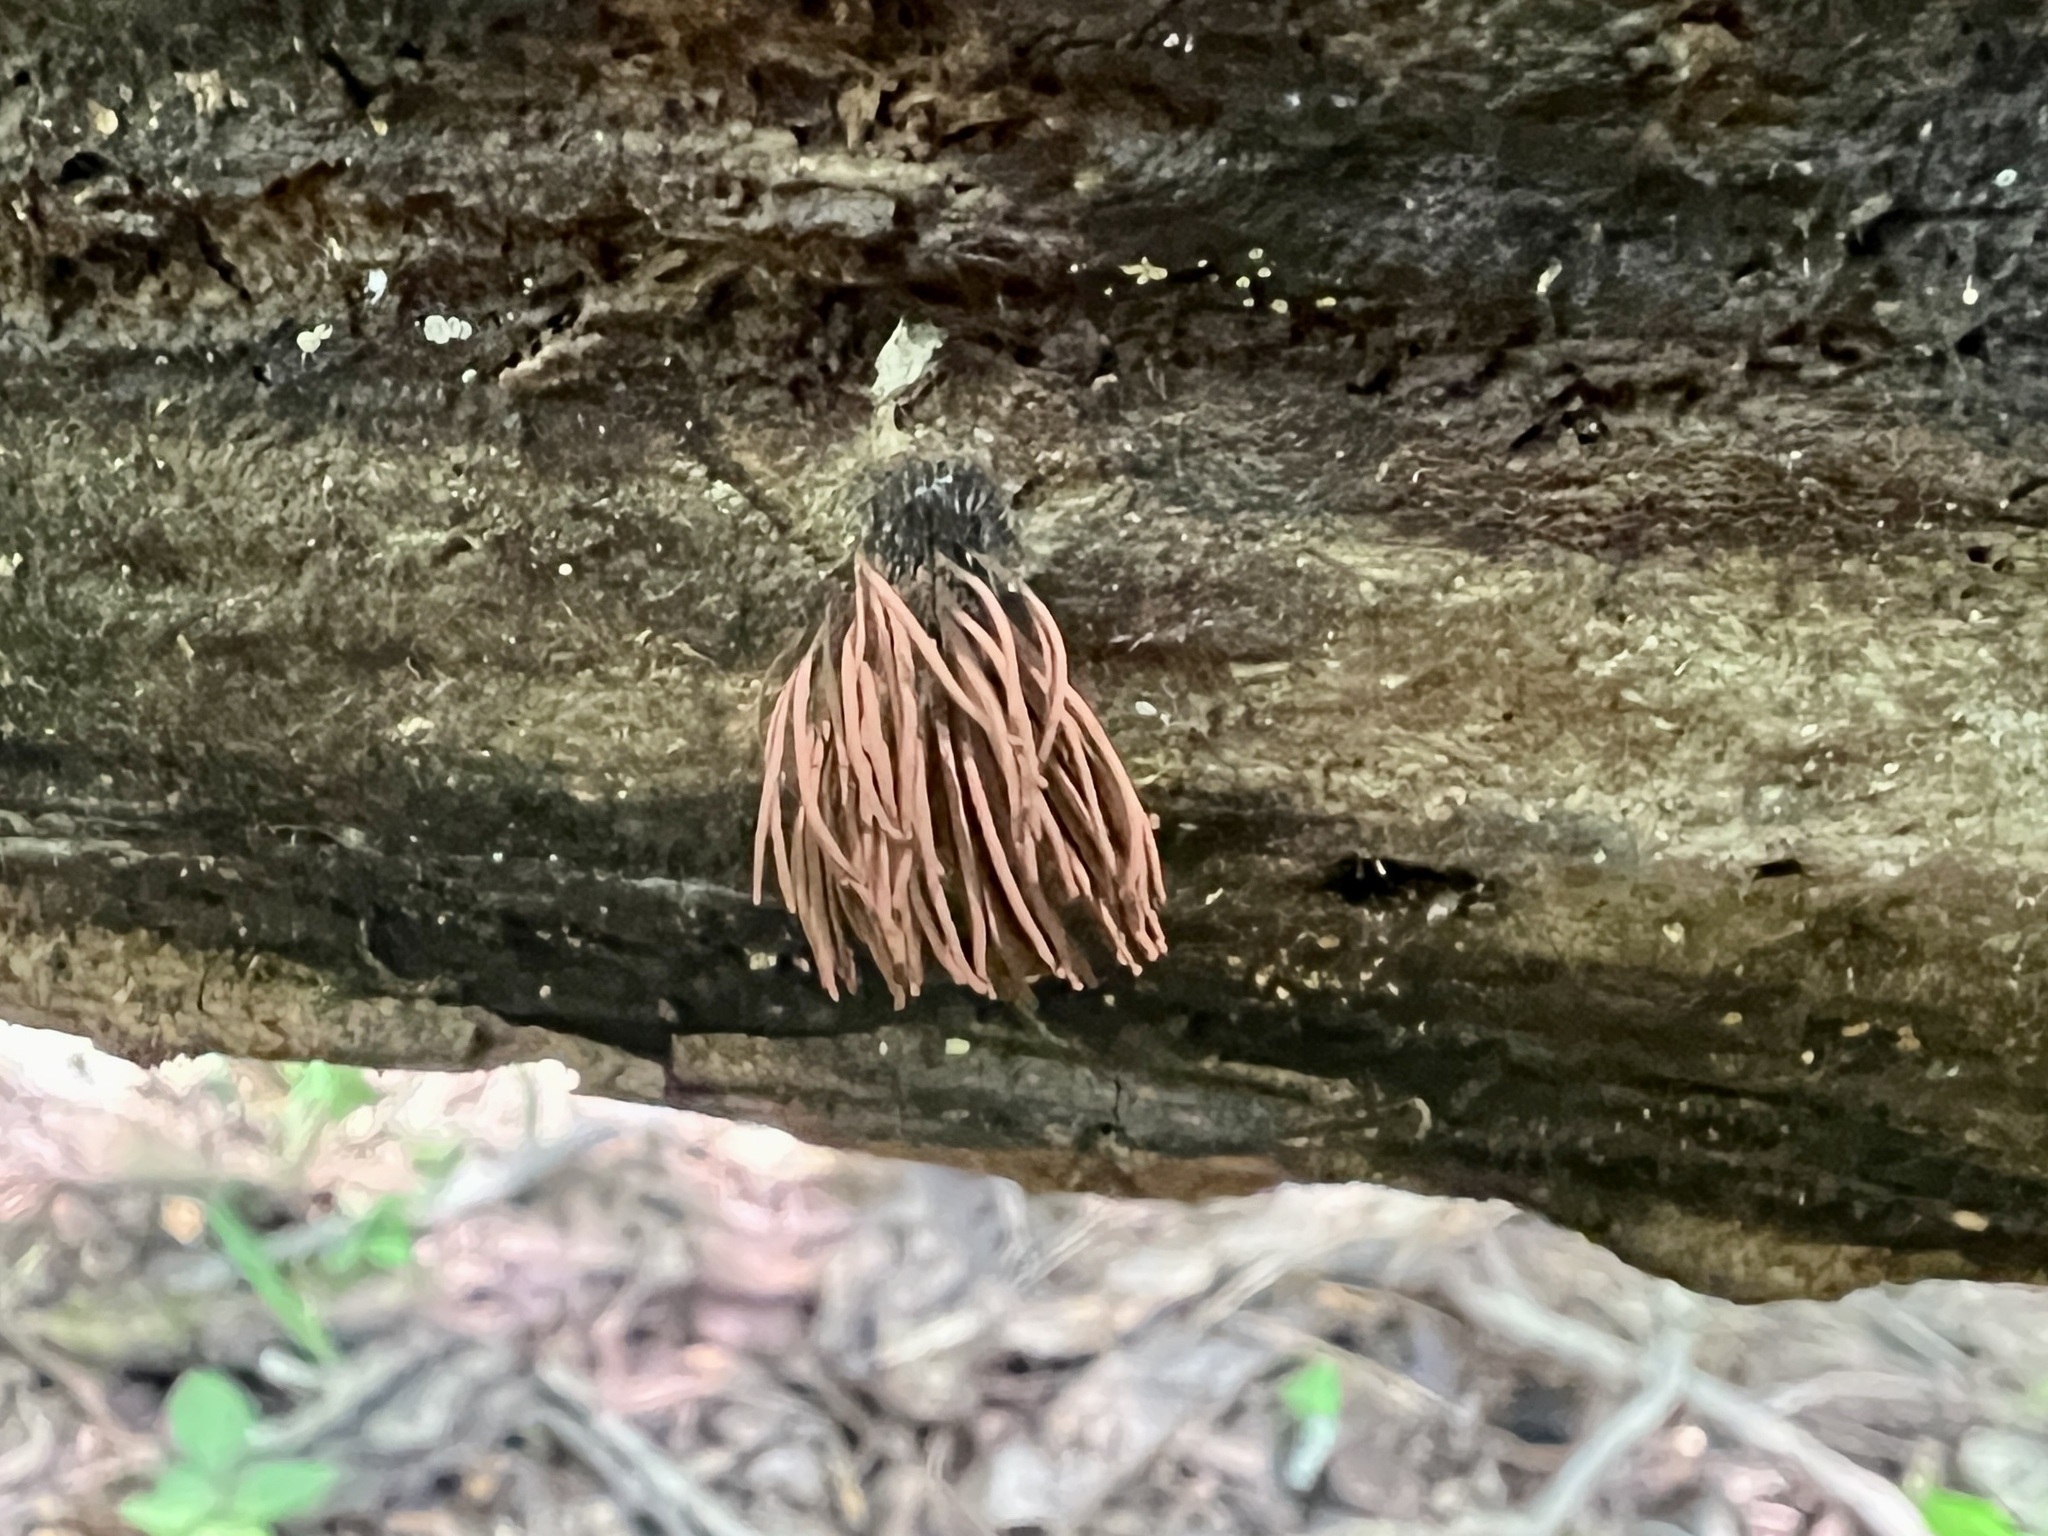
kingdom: Protozoa
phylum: Mycetozoa
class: Myxomycetes
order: Stemonitidales
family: Stemonitidaceae
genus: Stemonitis
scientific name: Stemonitis splendens
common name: Chocolate tube slime
